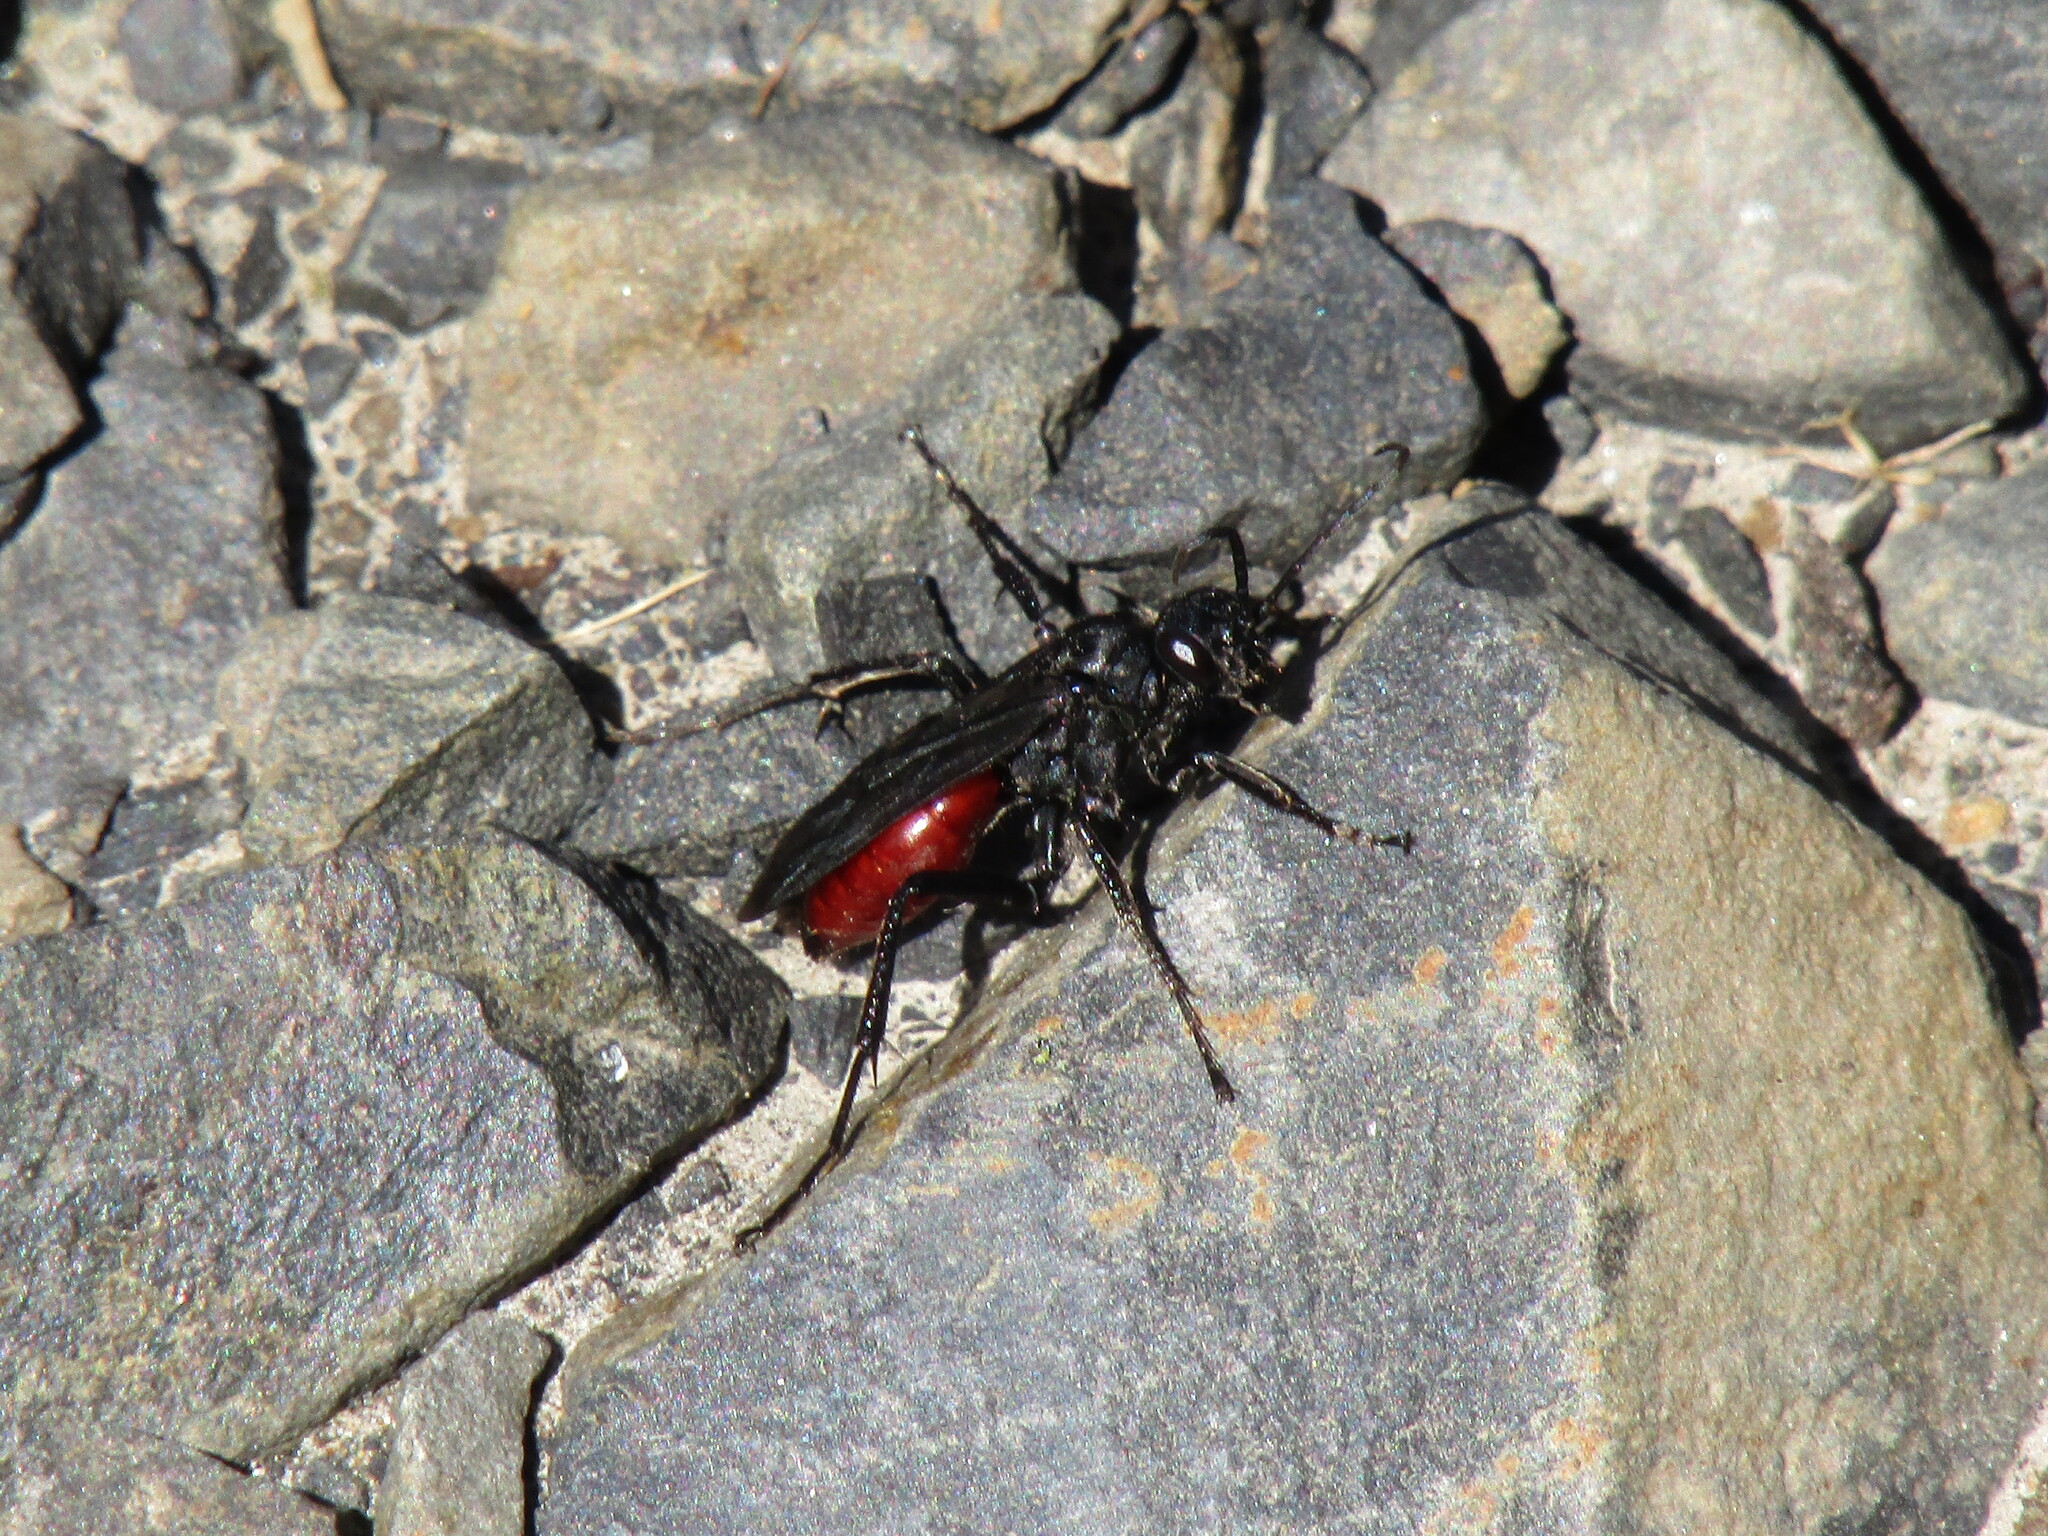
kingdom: Animalia
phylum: Arthropoda
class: Insecta
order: Hymenoptera
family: Pompilidae
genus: Priocnemis
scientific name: Priocnemis oregona
